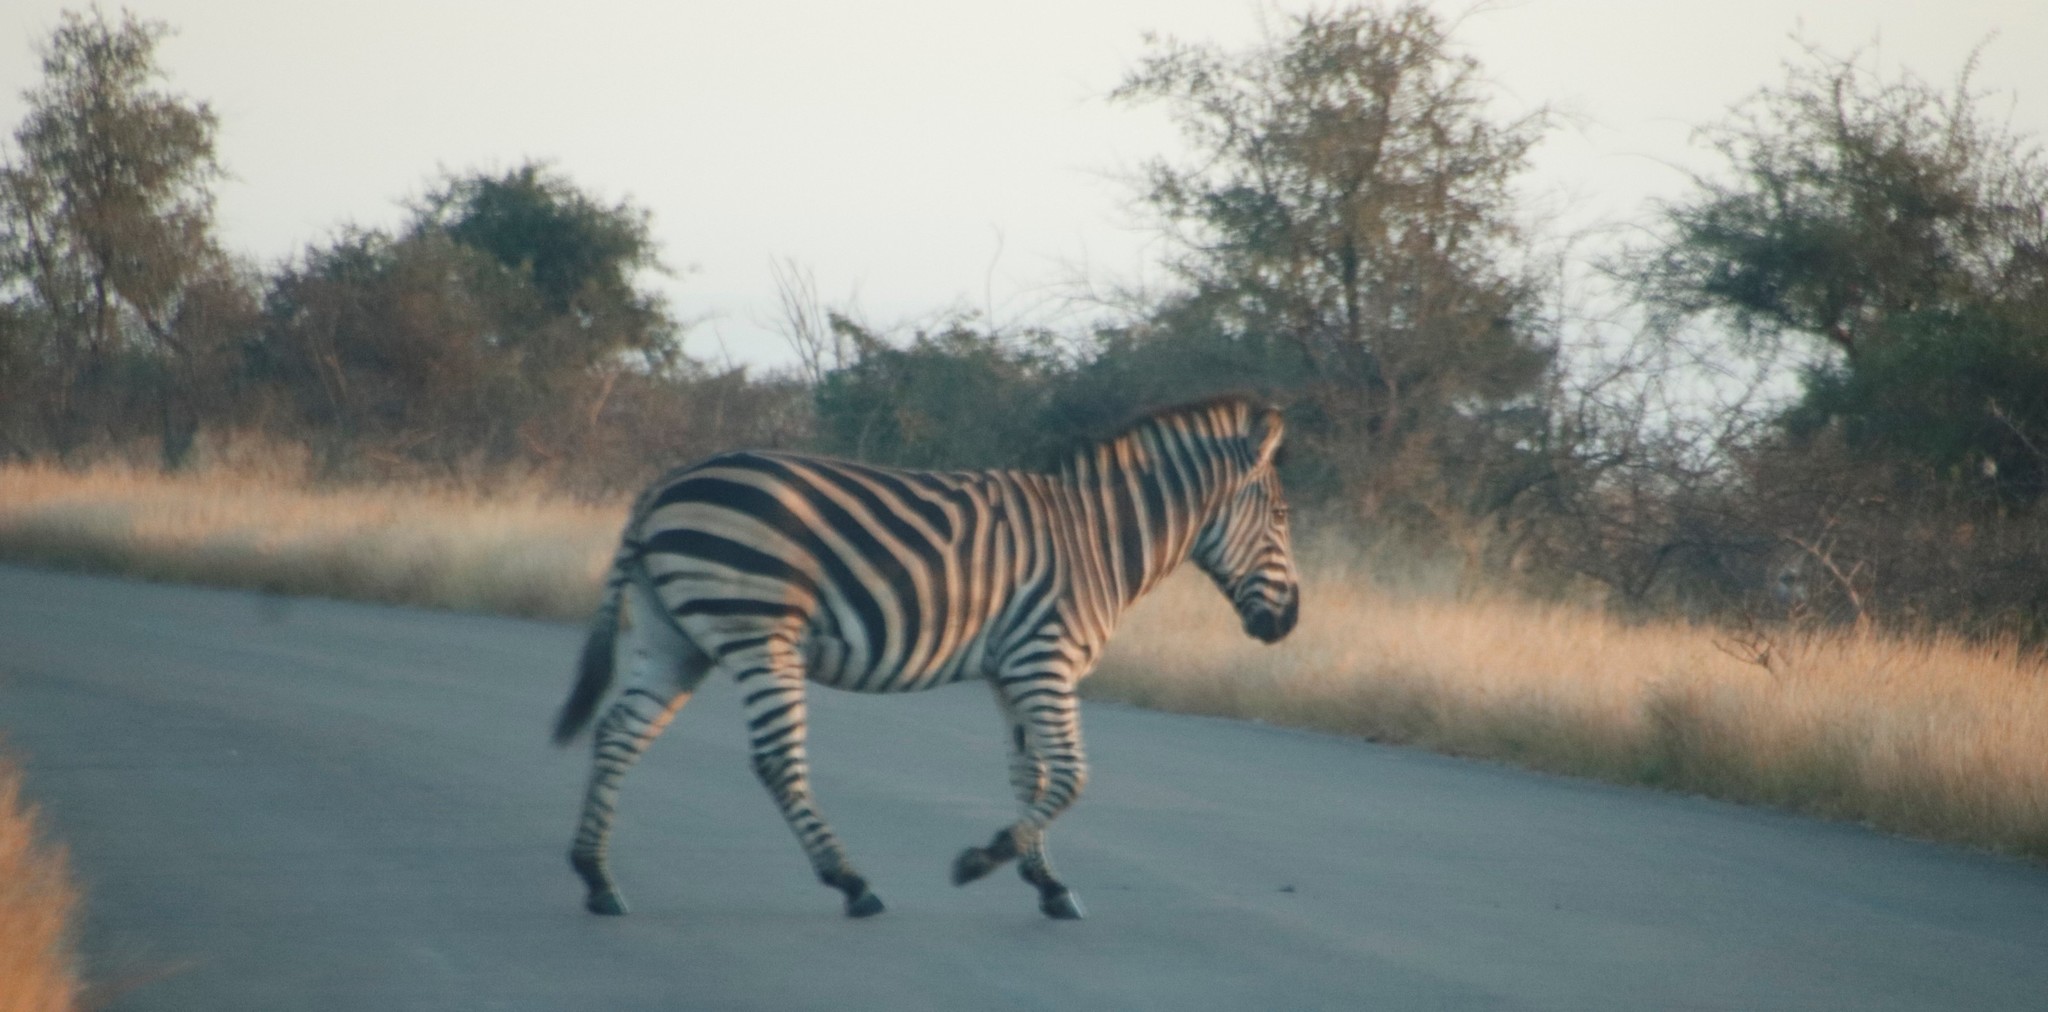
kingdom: Animalia
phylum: Chordata
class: Mammalia
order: Perissodactyla
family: Equidae
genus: Equus
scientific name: Equus quagga
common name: Plains zebra
